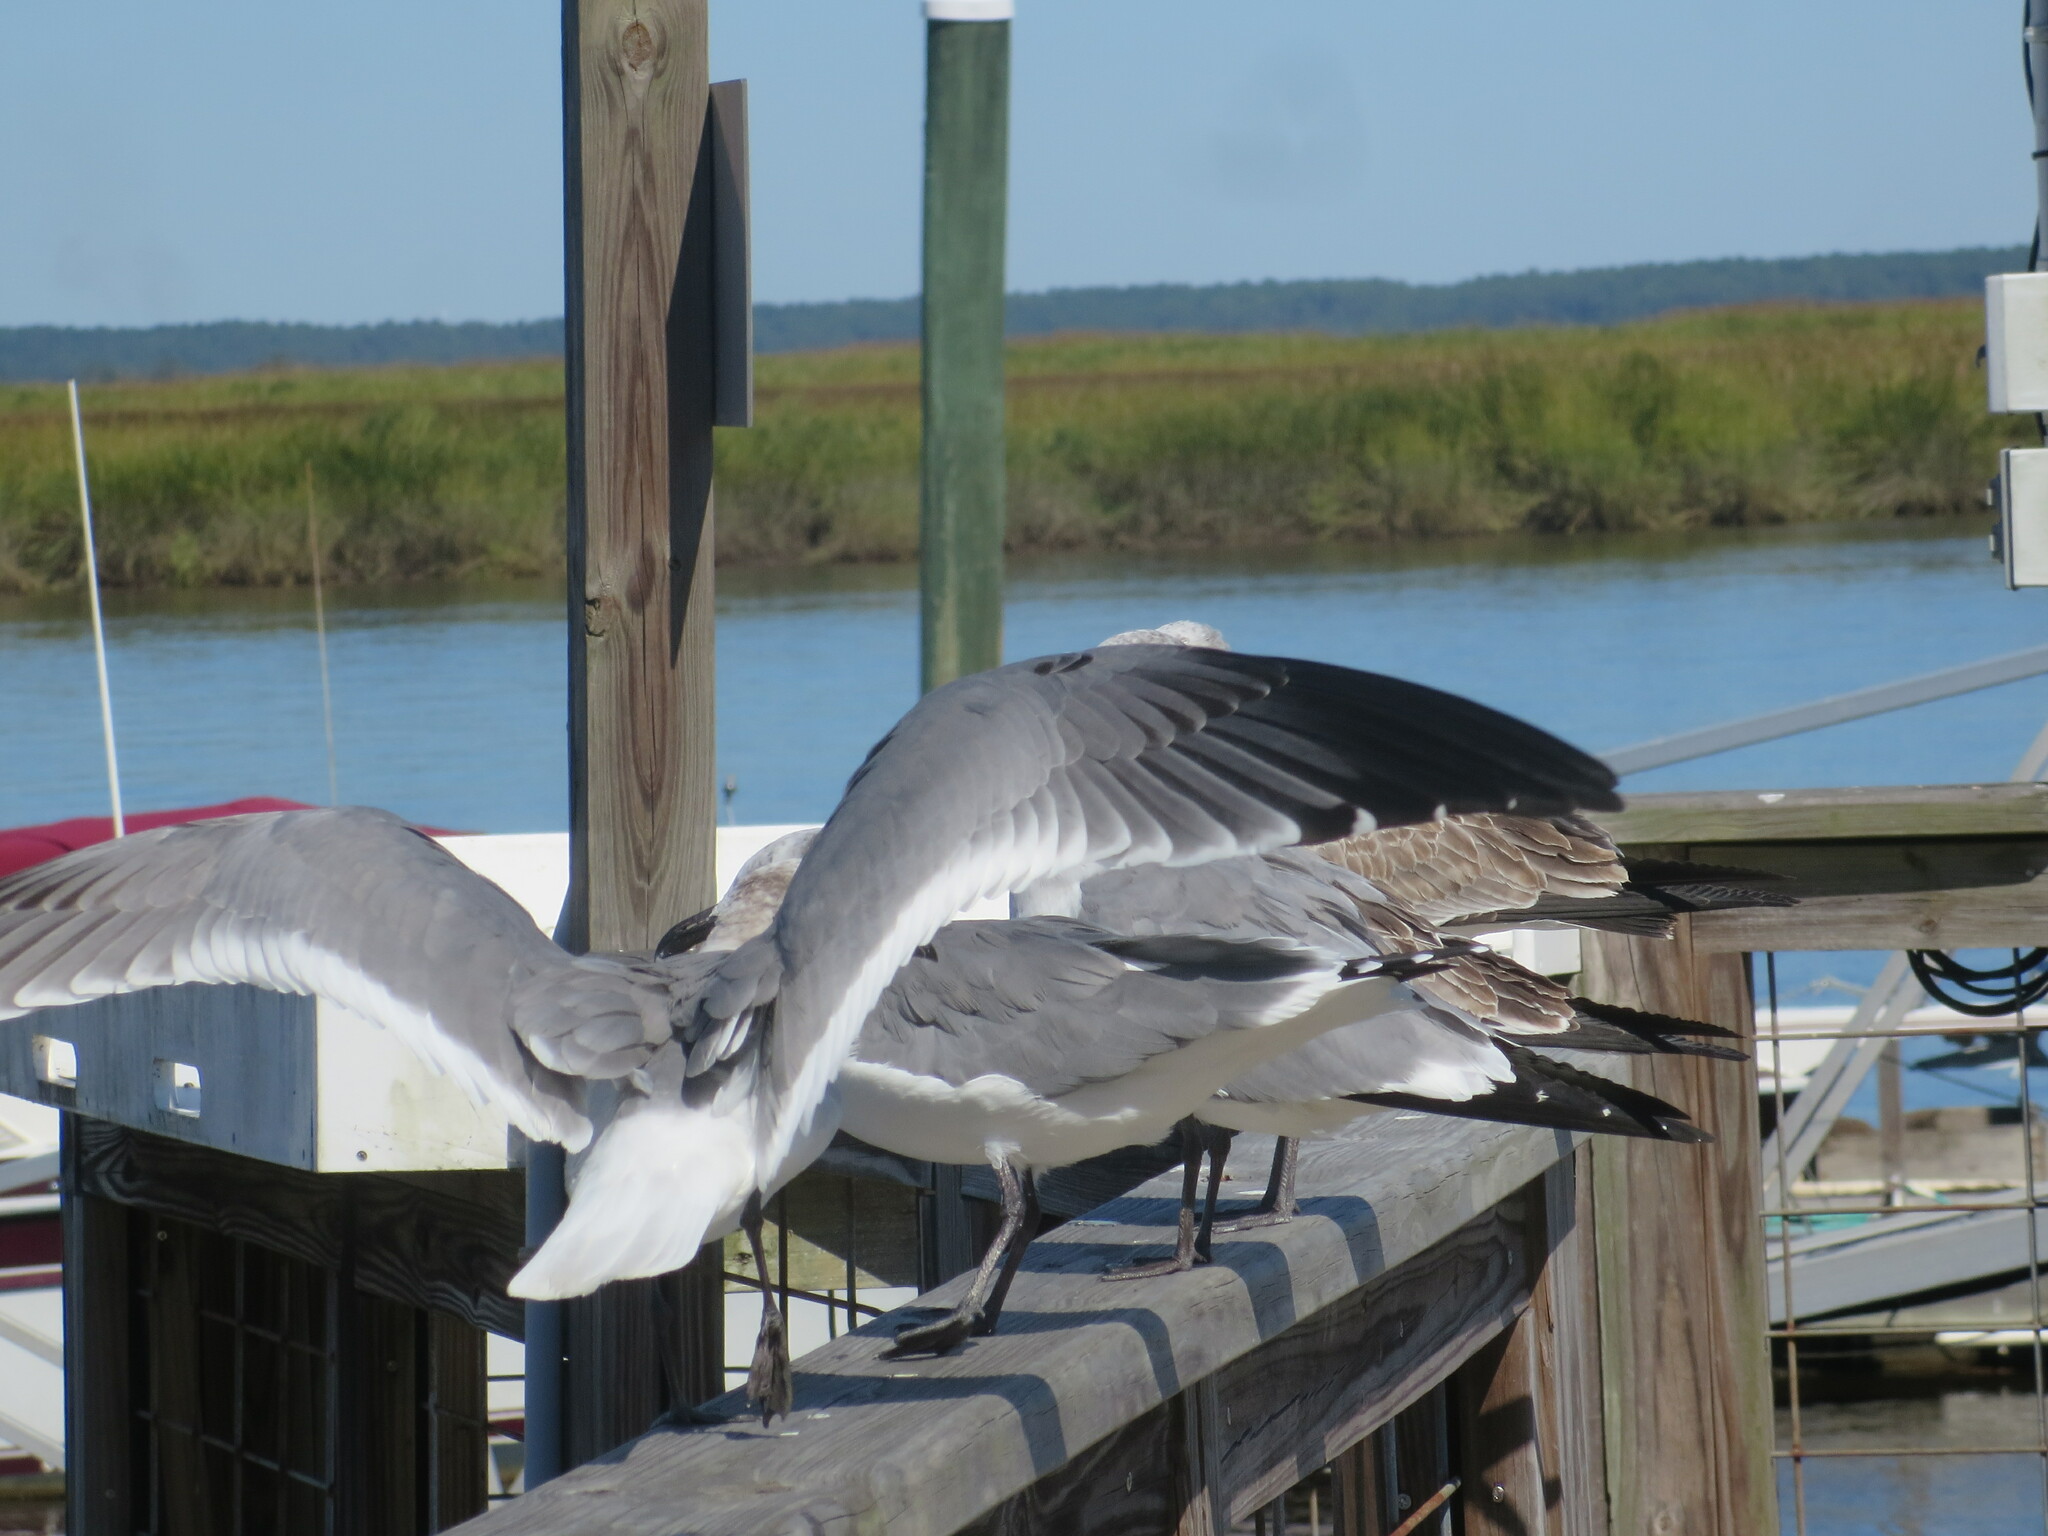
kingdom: Animalia
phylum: Chordata
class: Aves
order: Charadriiformes
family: Laridae
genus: Leucophaeus
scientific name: Leucophaeus atricilla
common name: Laughing gull
